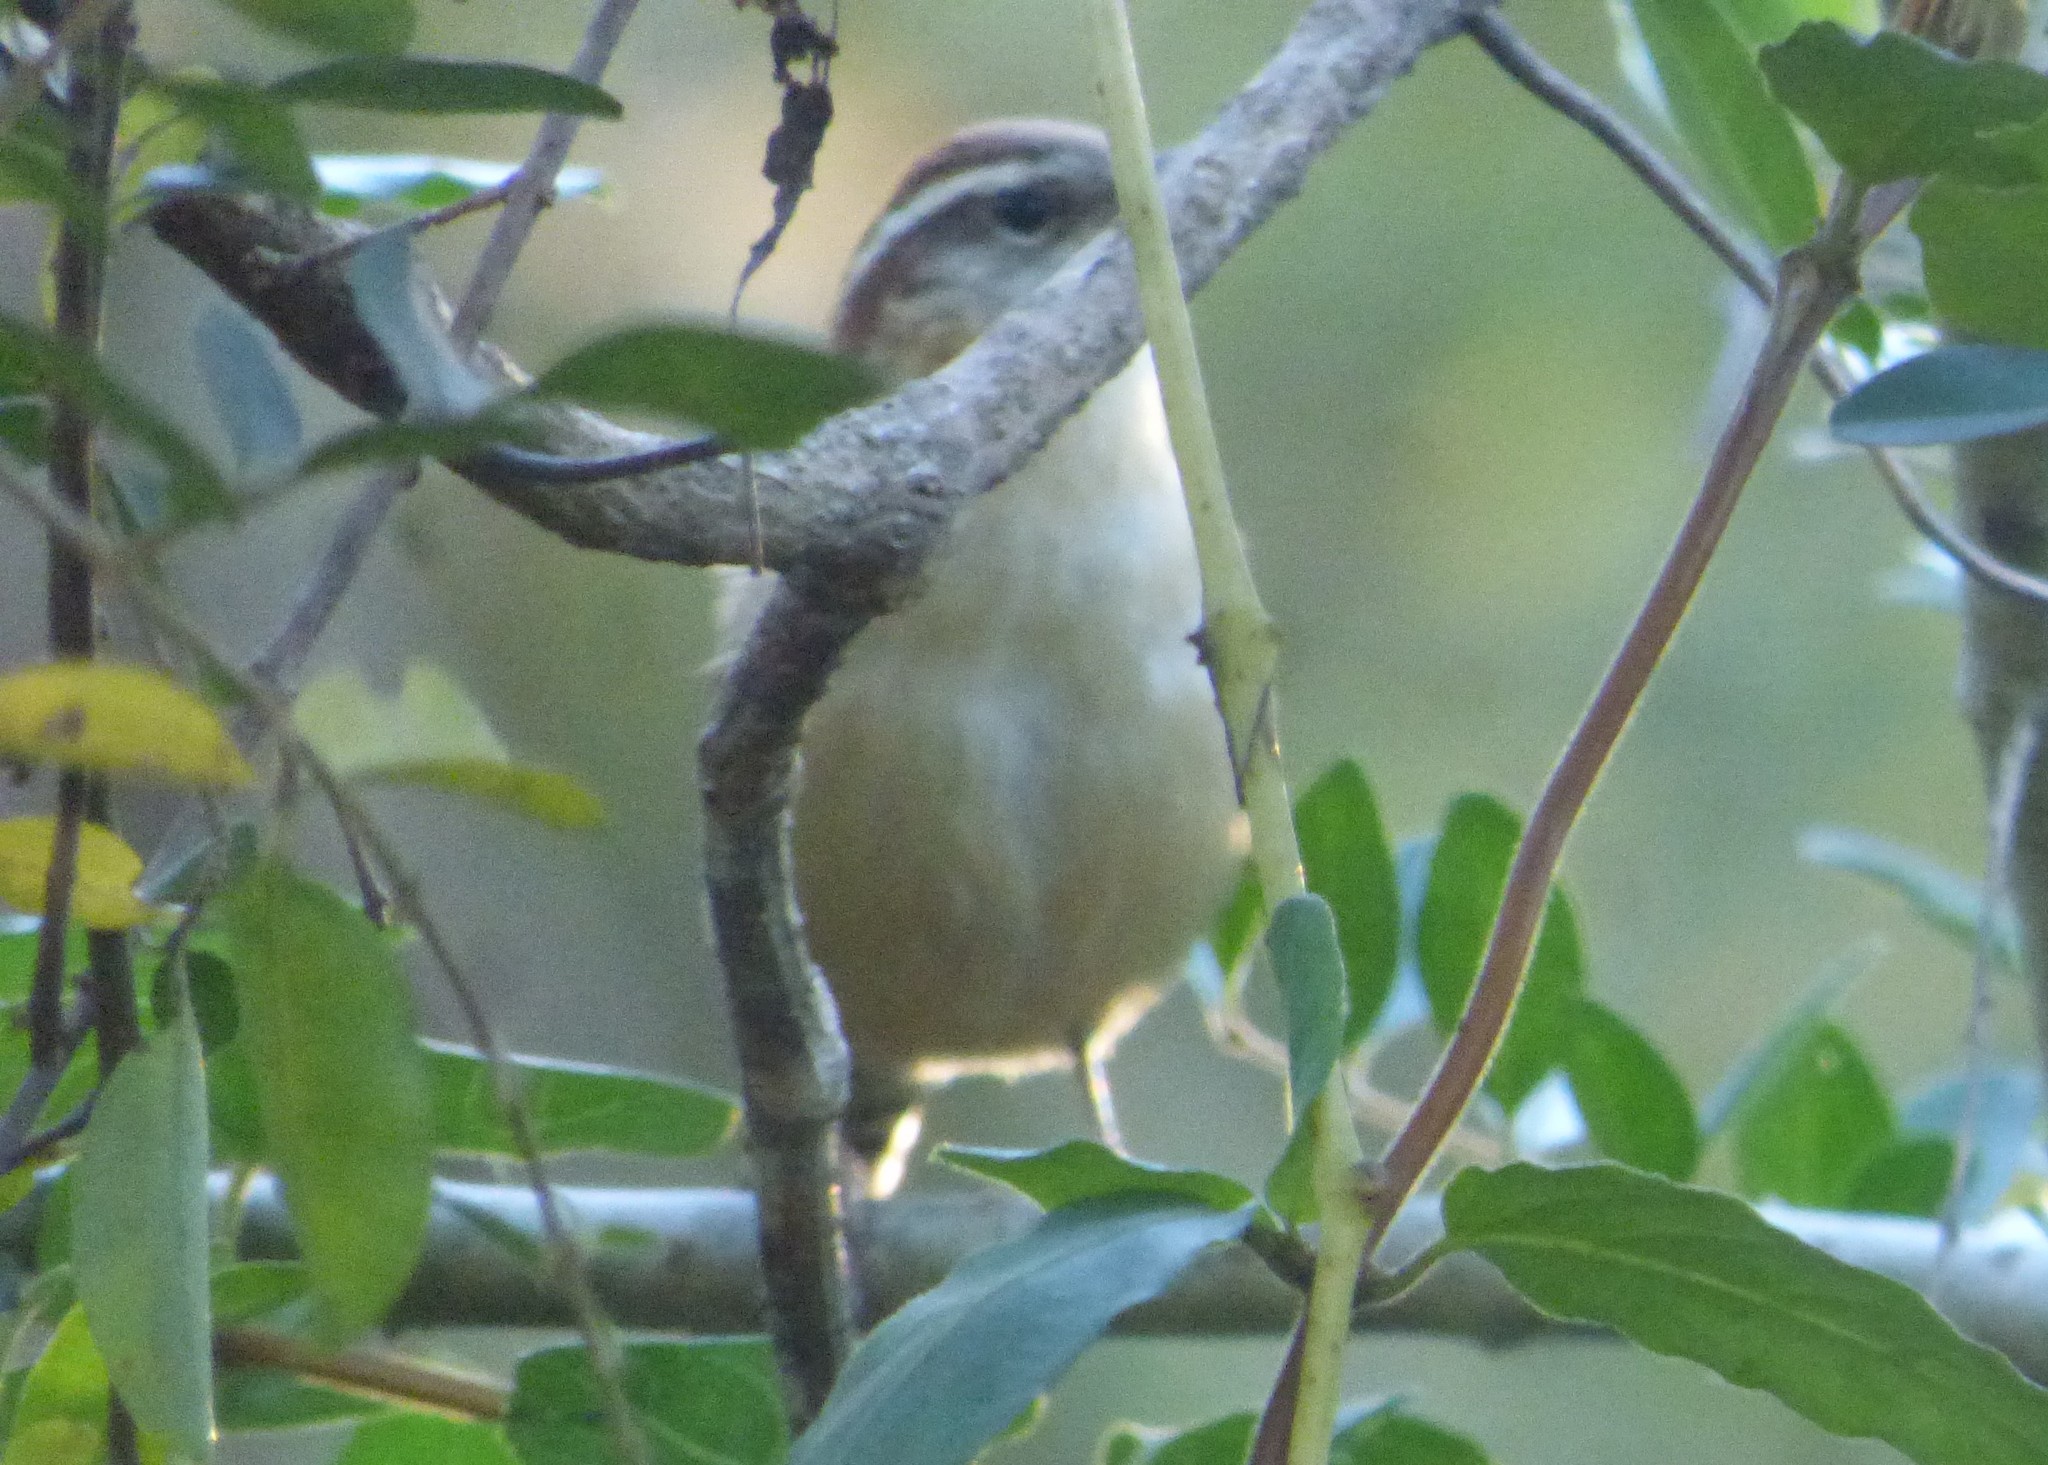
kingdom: Animalia
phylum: Chordata
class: Aves
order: Passeriformes
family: Troglodytidae
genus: Thryothorus
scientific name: Thryothorus ludovicianus
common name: Carolina wren
